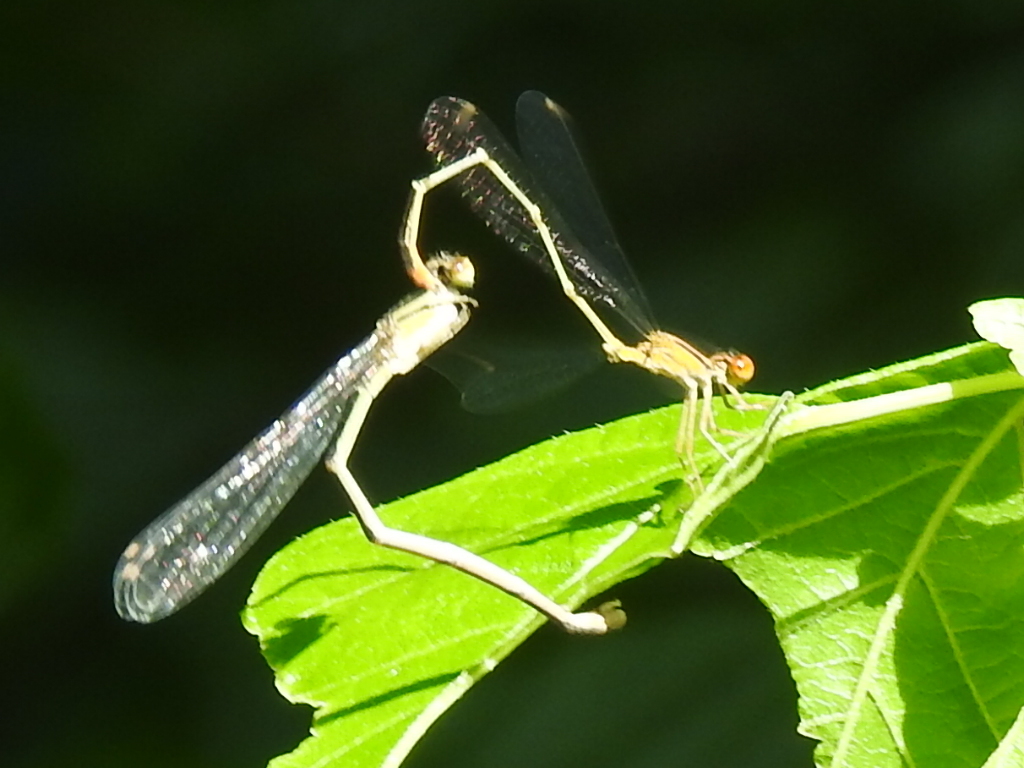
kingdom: Animalia
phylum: Arthropoda
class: Insecta
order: Odonata
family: Coenagrionidae
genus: Enallagma
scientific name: Enallagma signatum
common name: Orange bluet
